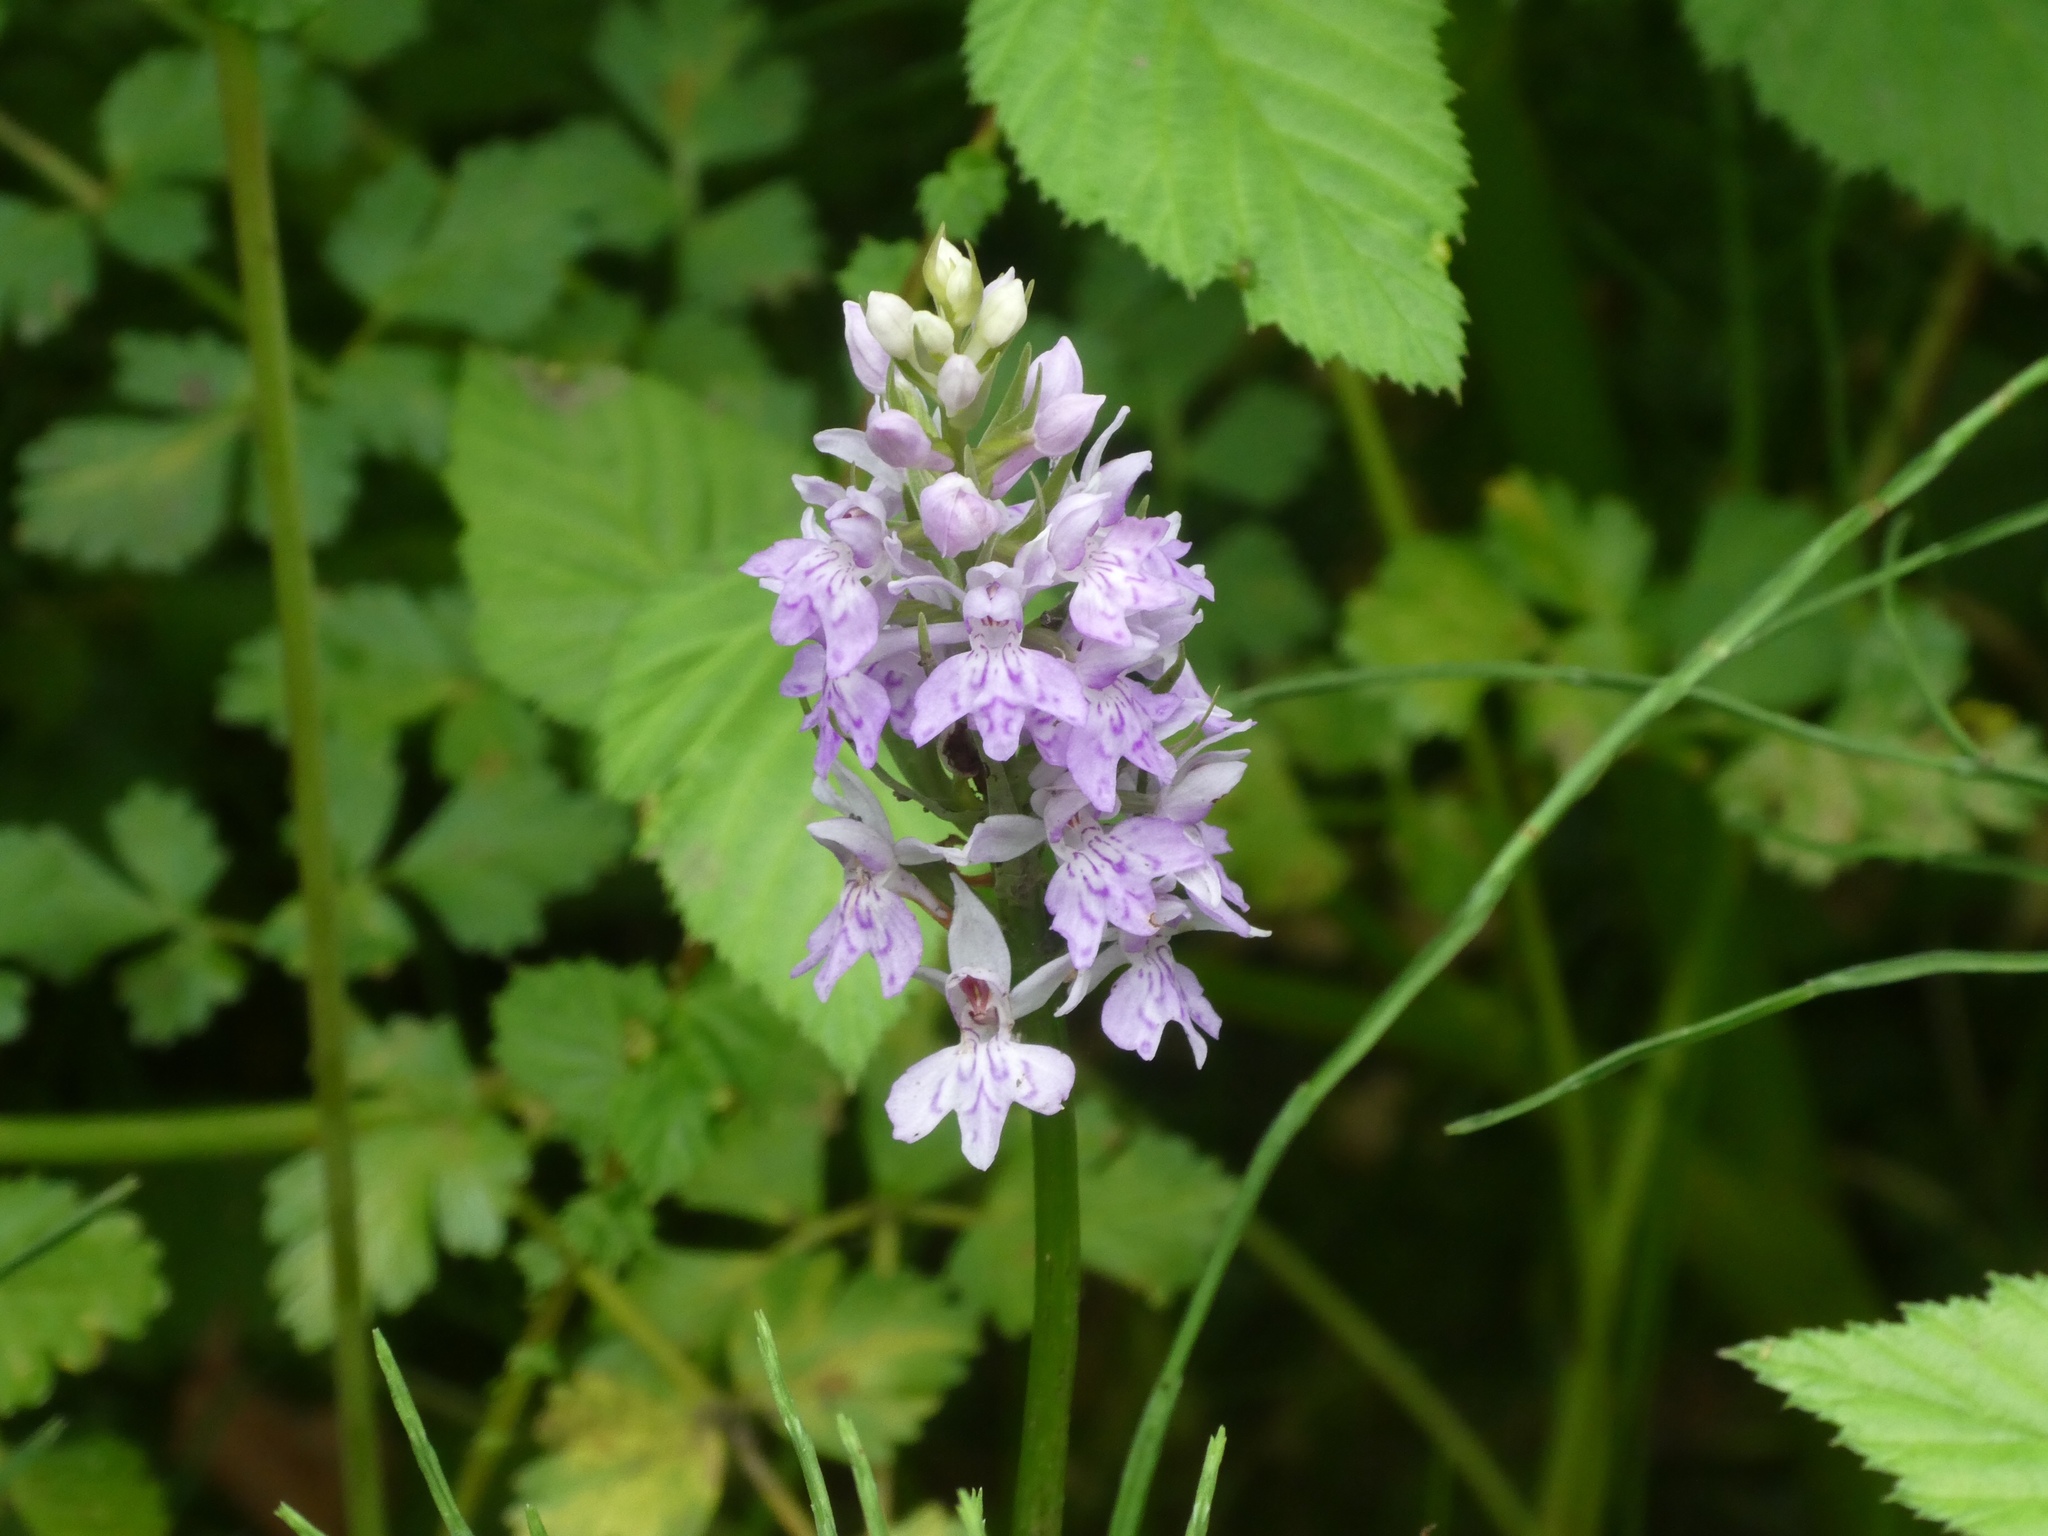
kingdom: Plantae
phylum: Tracheophyta
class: Liliopsida
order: Asparagales
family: Orchidaceae
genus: Dactylorhiza
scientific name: Dactylorhiza maculata
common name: Heath spotted-orchid
